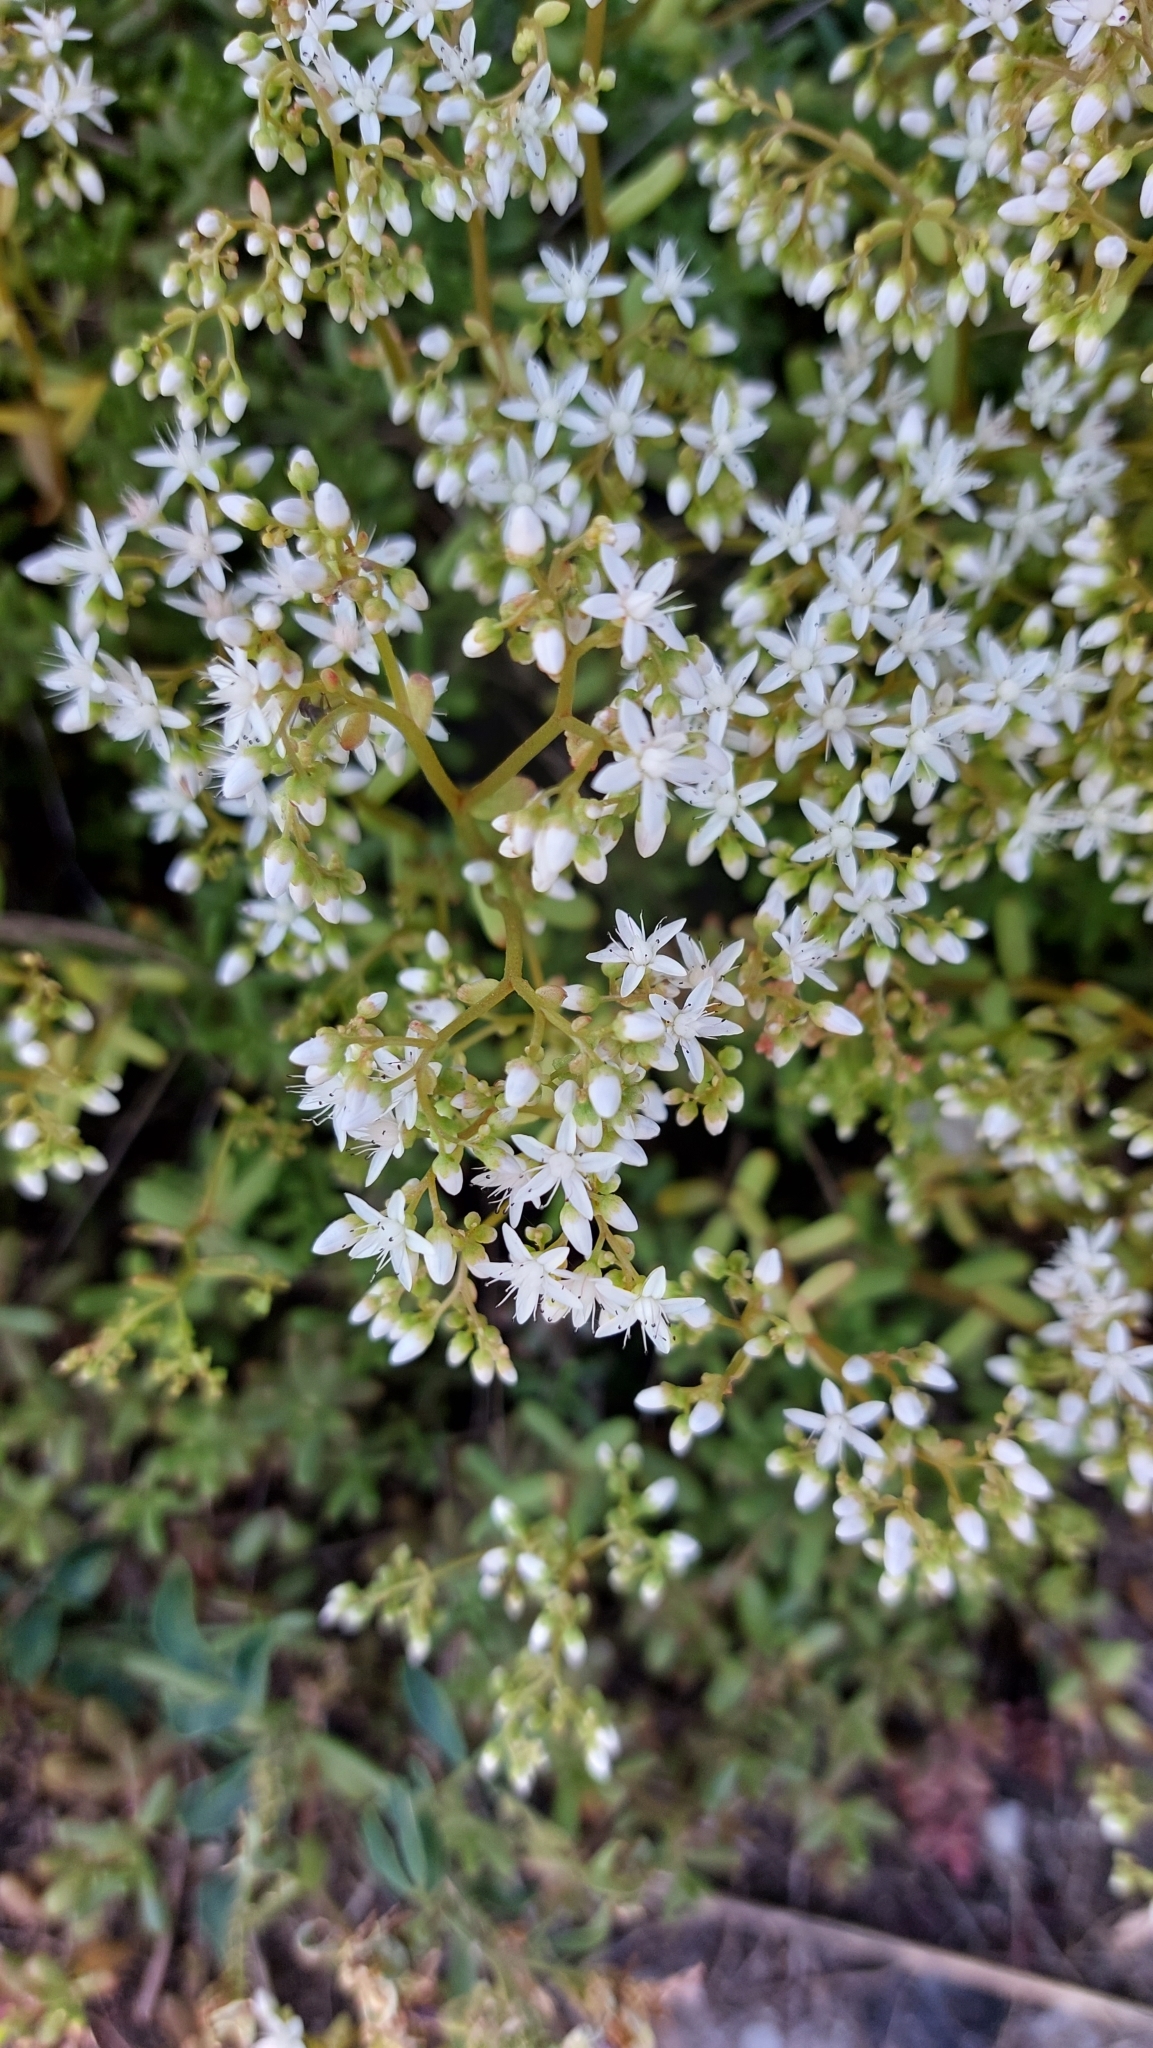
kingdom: Plantae
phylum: Tracheophyta
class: Magnoliopsida
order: Saxifragales
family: Crassulaceae
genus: Sedum
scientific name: Sedum album
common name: White stonecrop
